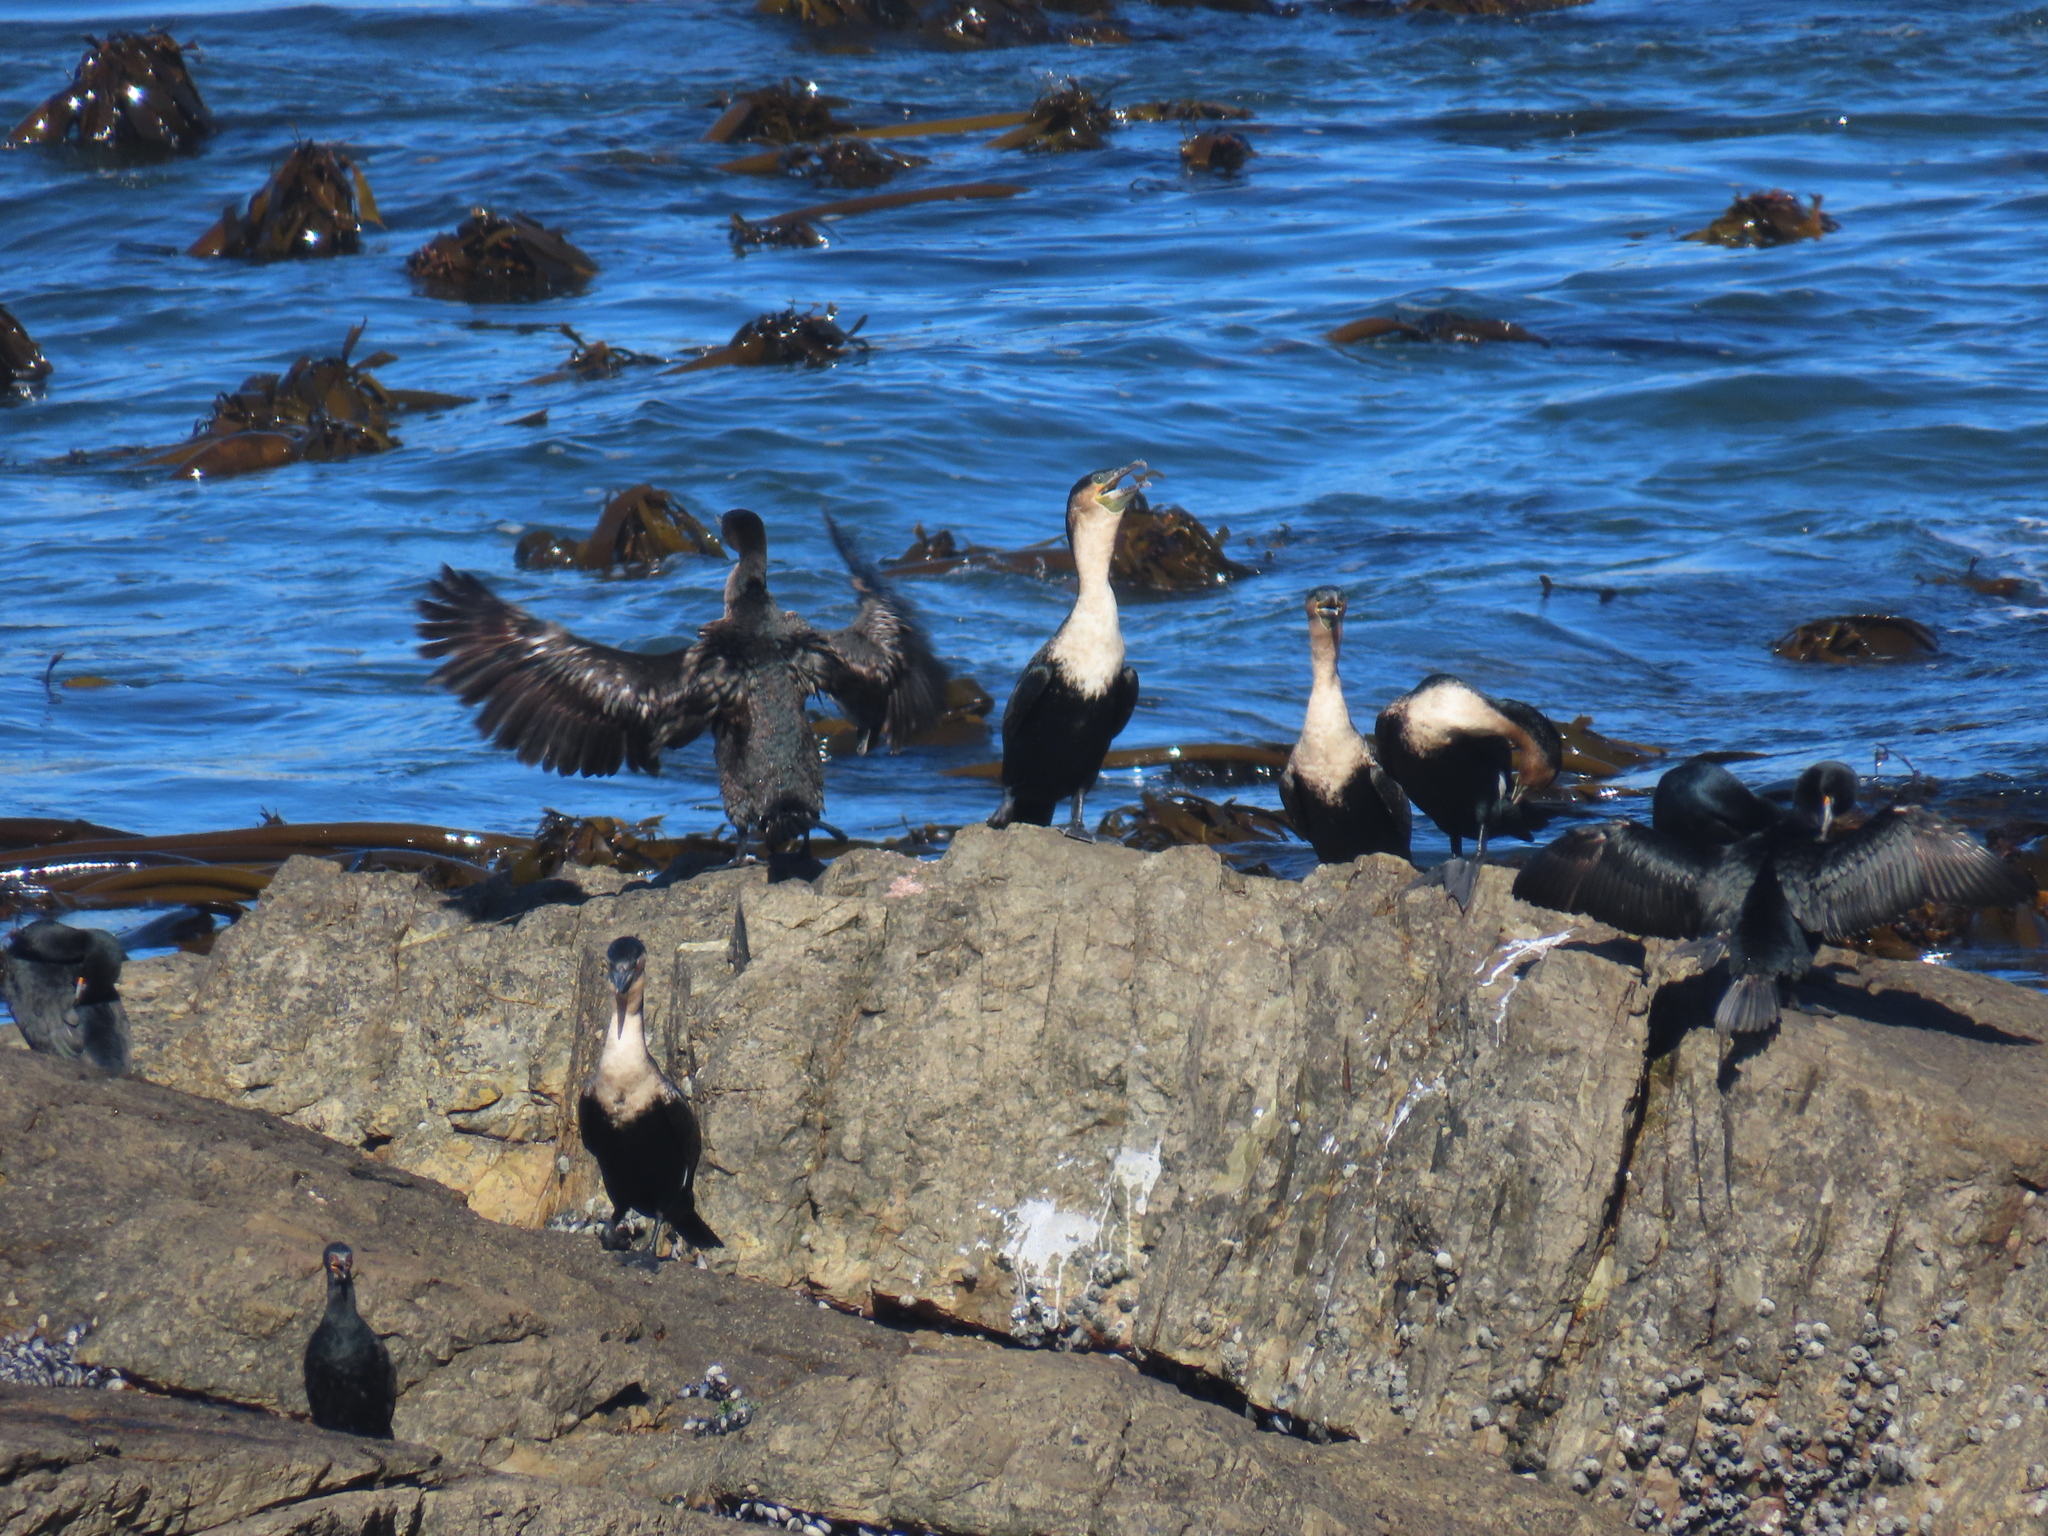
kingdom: Animalia
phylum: Chordata
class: Aves
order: Suliformes
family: Phalacrocoracidae
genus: Phalacrocorax
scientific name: Phalacrocorax carbo
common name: Great cormorant
